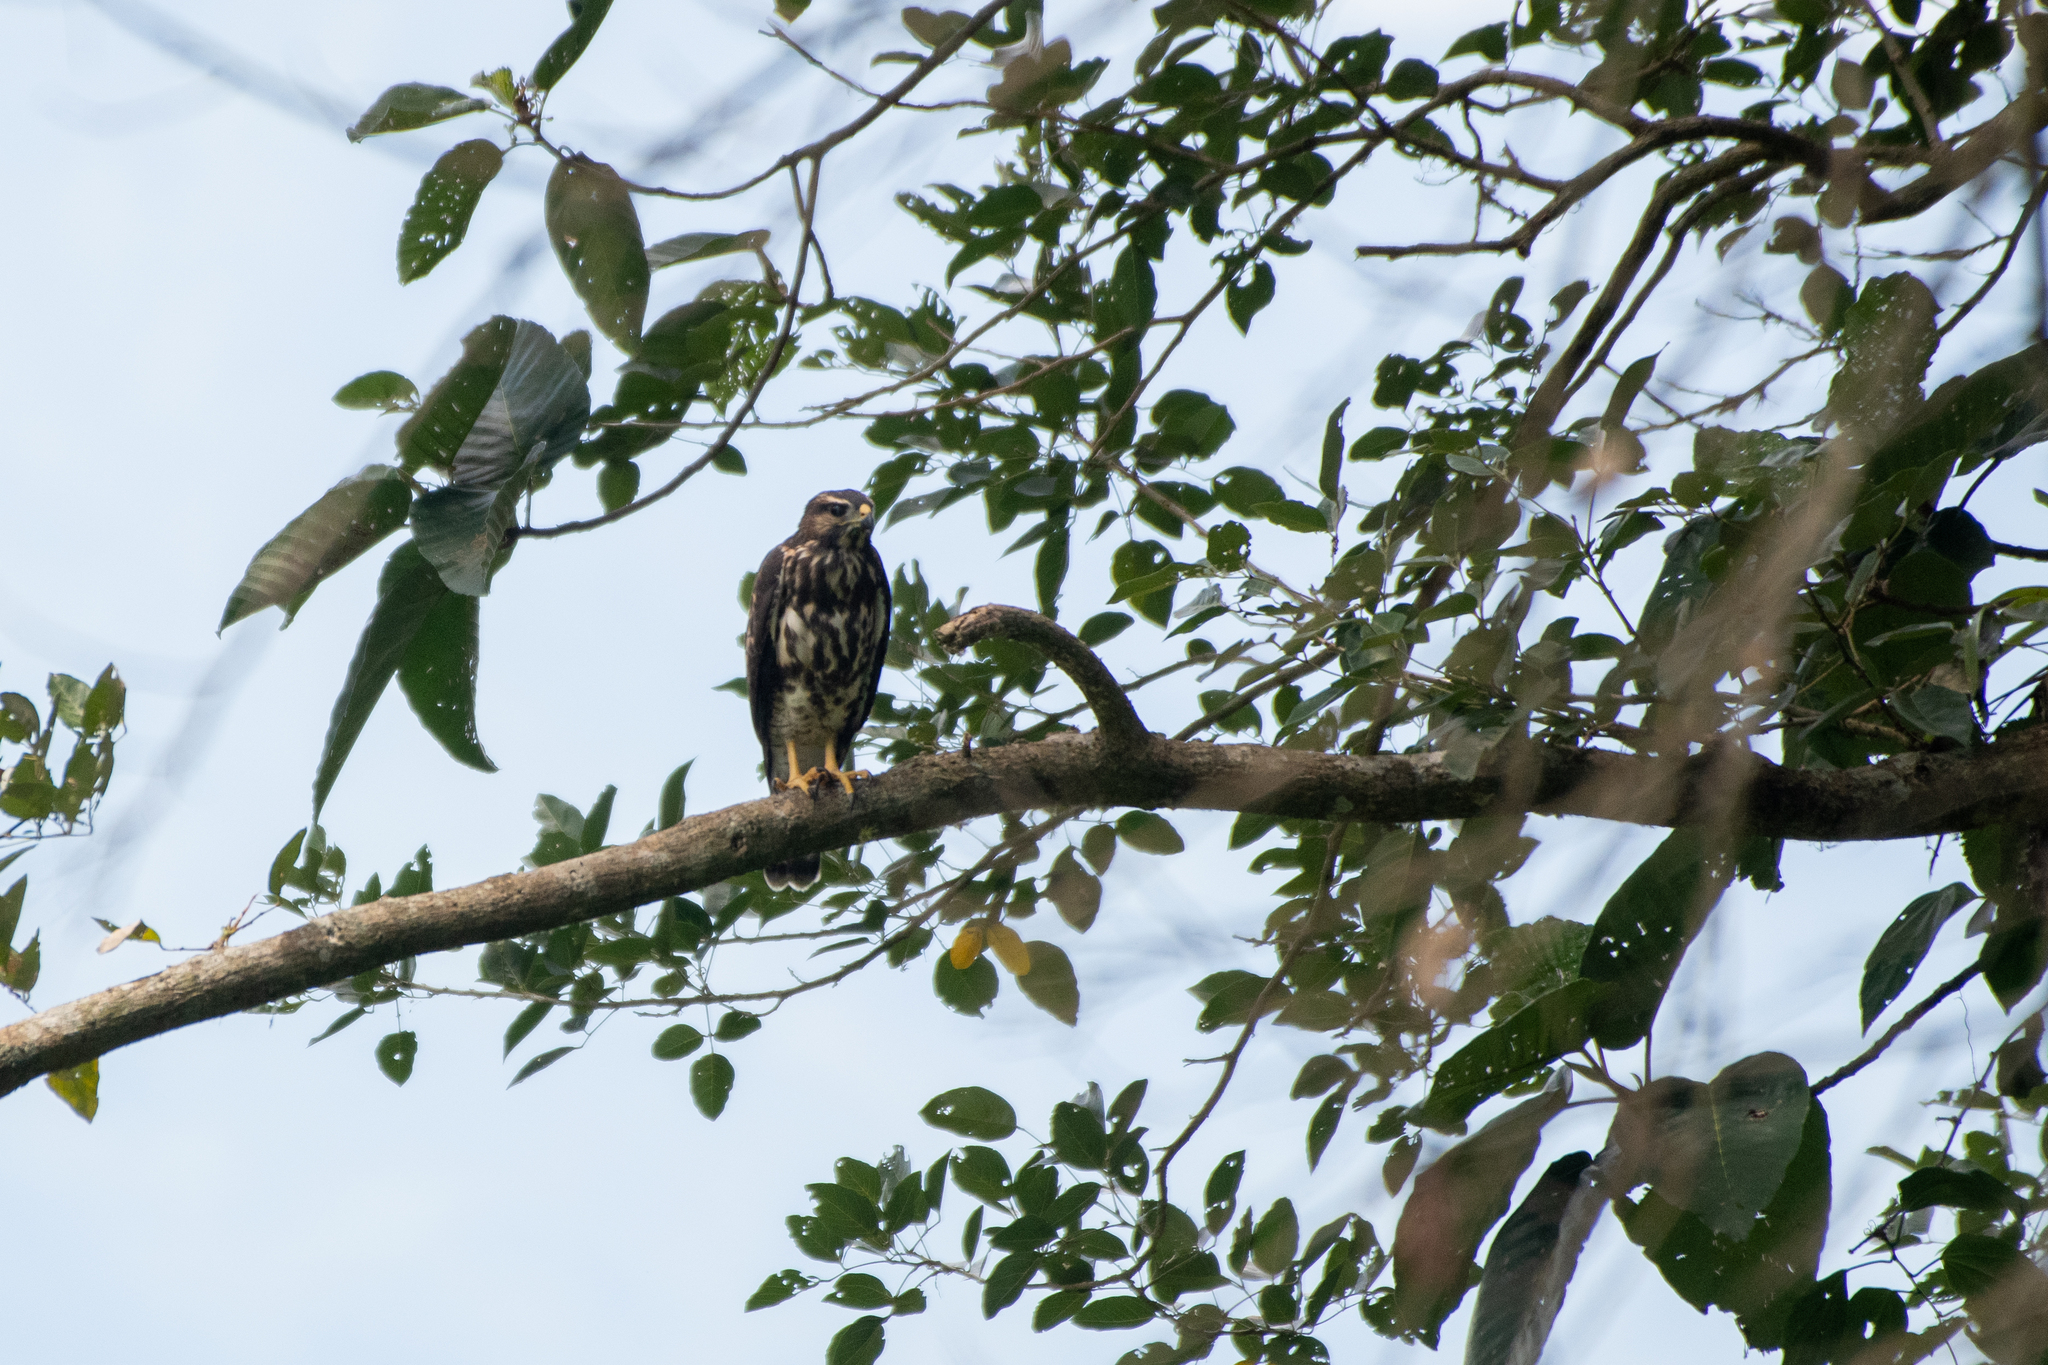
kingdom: Animalia
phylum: Chordata
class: Aves
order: Accipitriformes
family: Accipitridae
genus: Buteo
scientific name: Buteo nitidus
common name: Grey-lined hawk
